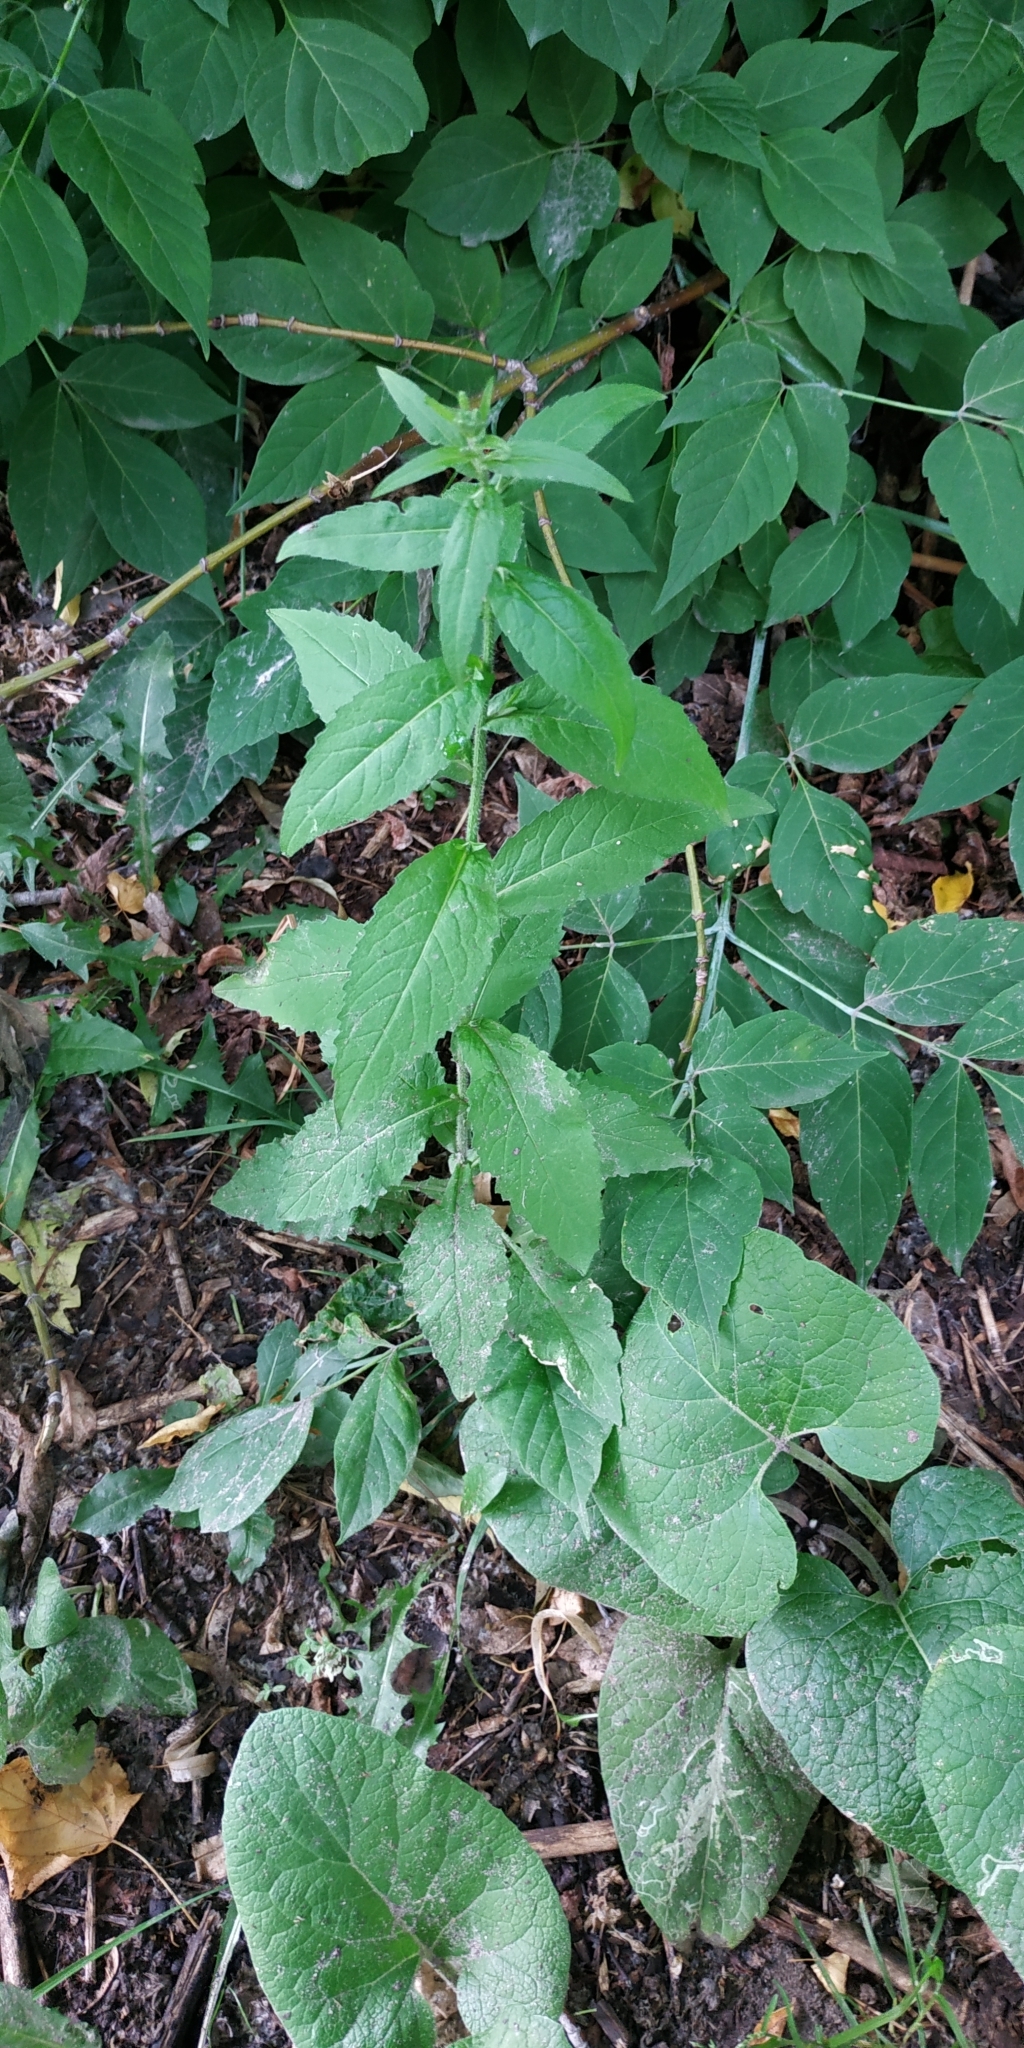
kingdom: Plantae
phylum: Tracheophyta
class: Magnoliopsida
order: Brassicales
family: Brassicaceae
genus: Catolobus
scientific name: Catolobus pendulus
